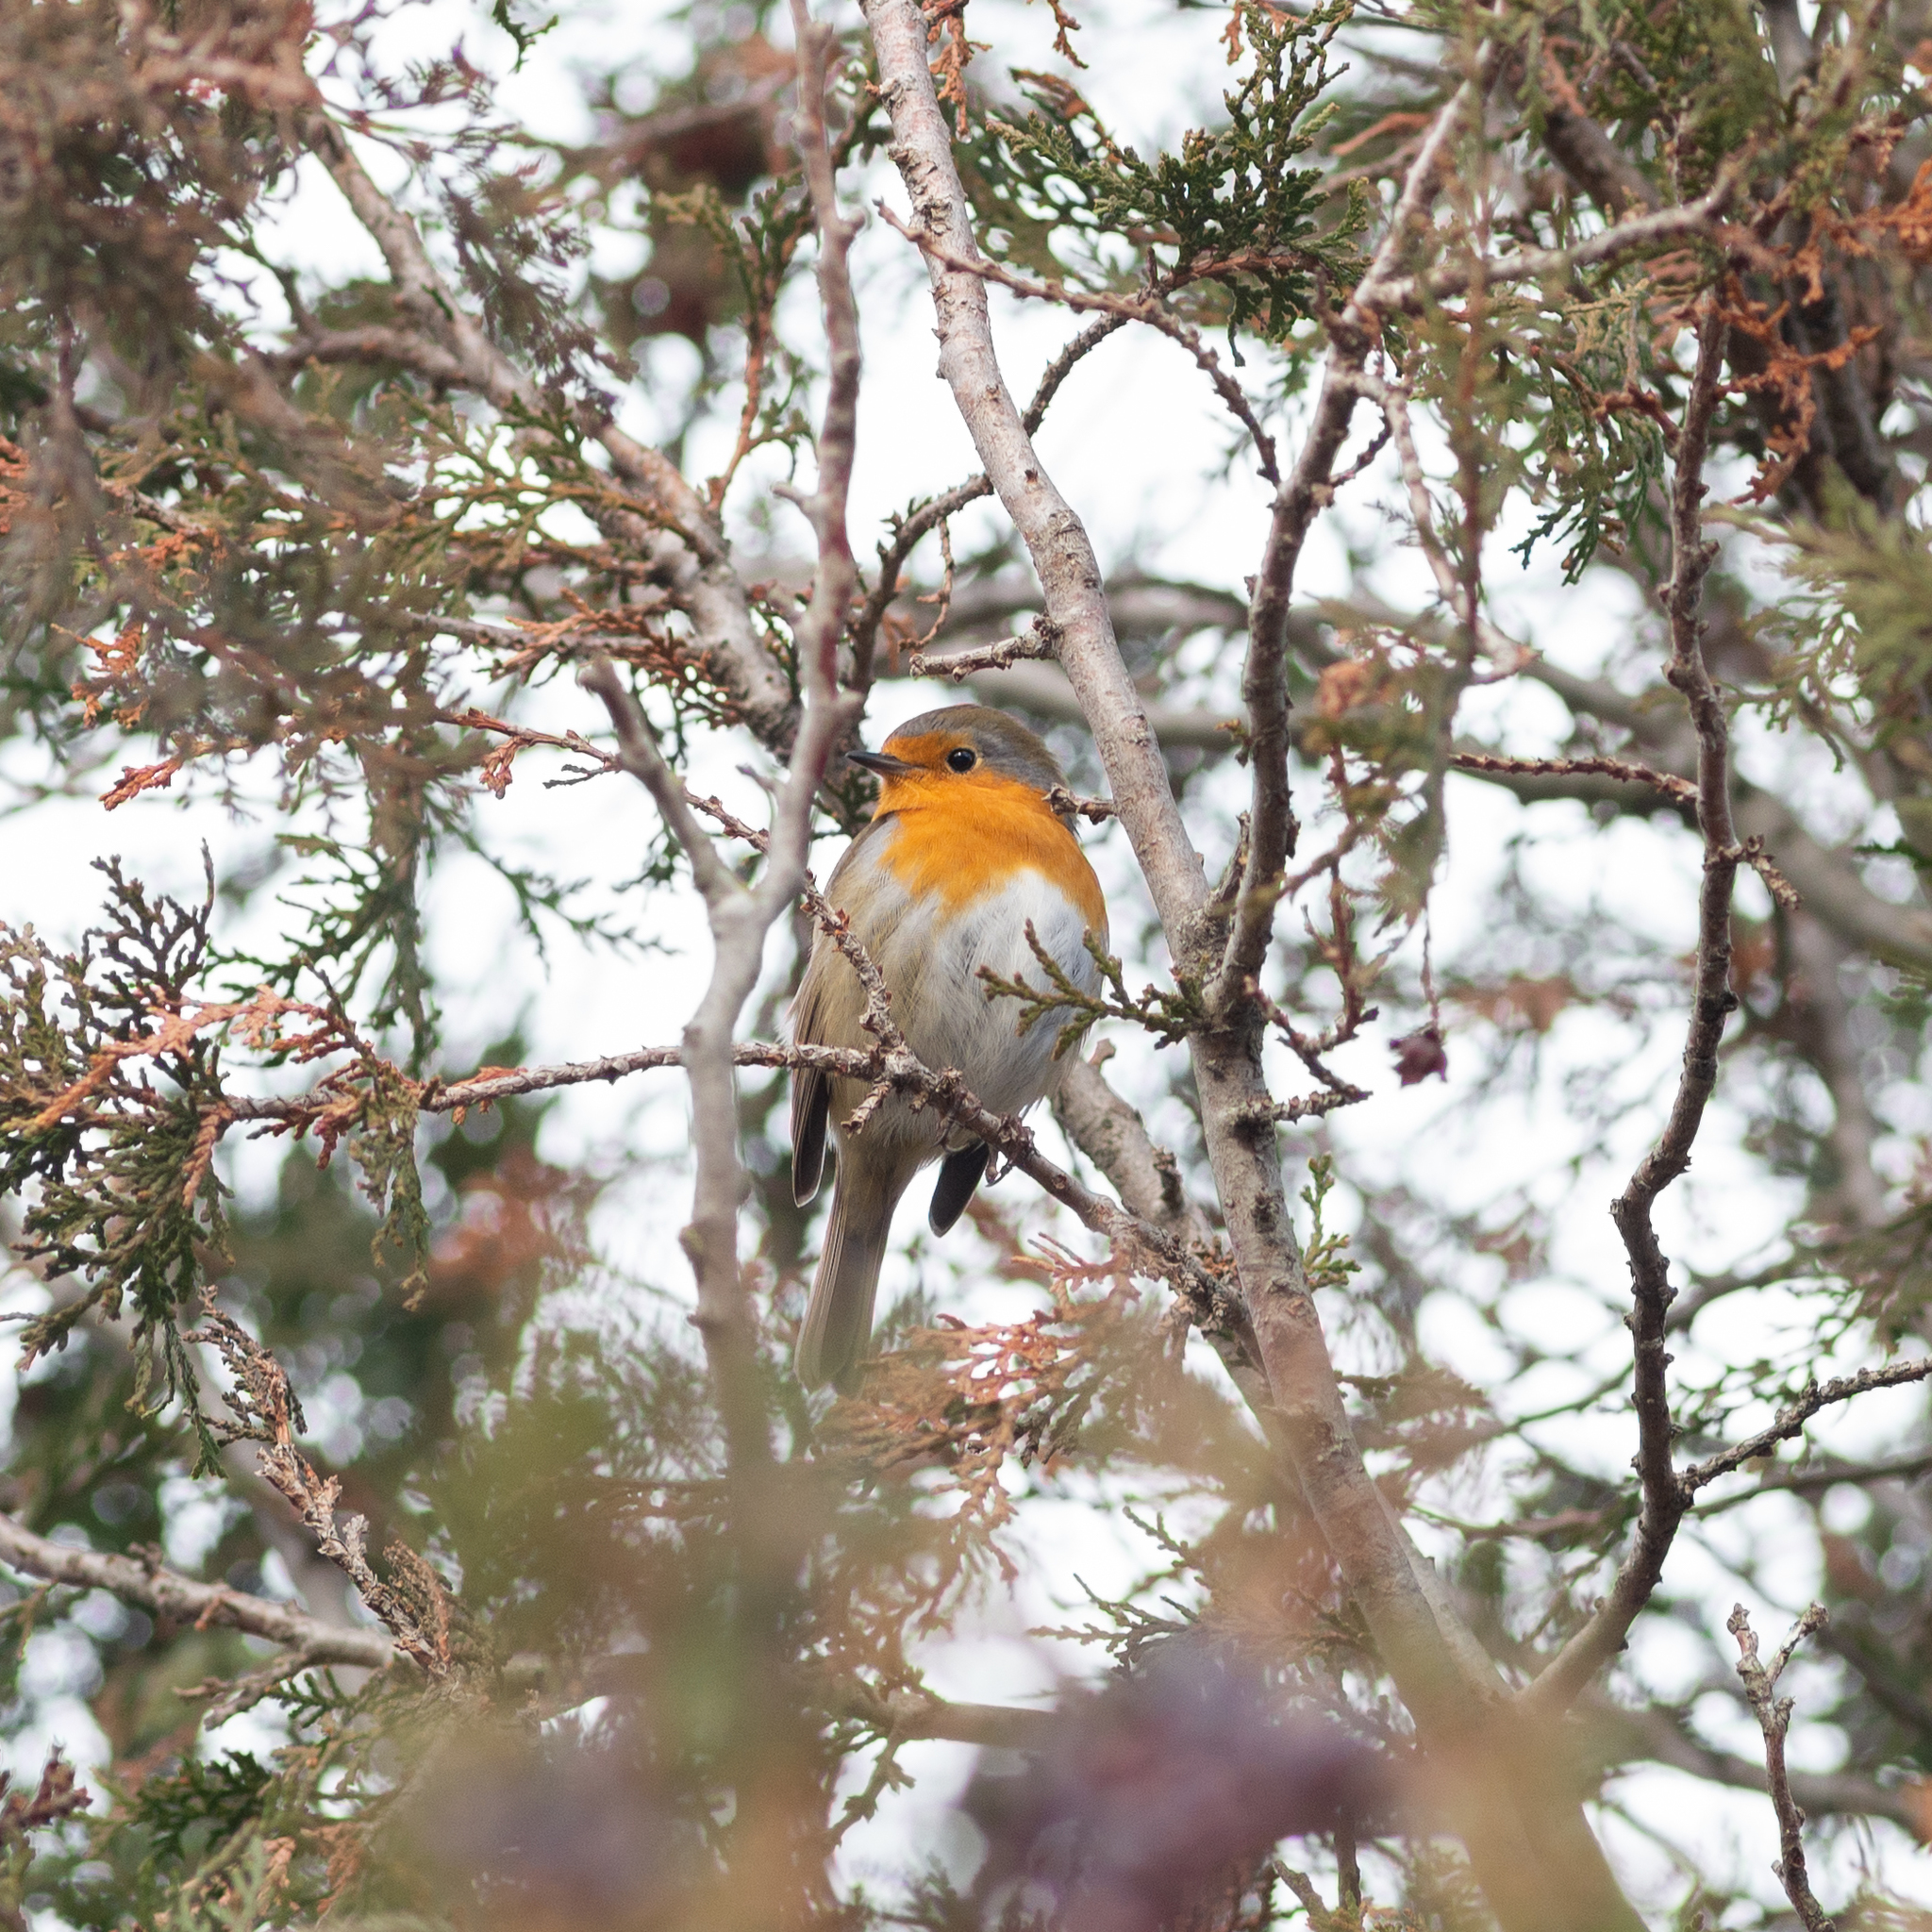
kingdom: Animalia
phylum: Chordata
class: Aves
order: Passeriformes
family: Muscicapidae
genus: Erithacus
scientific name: Erithacus rubecula
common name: European robin
